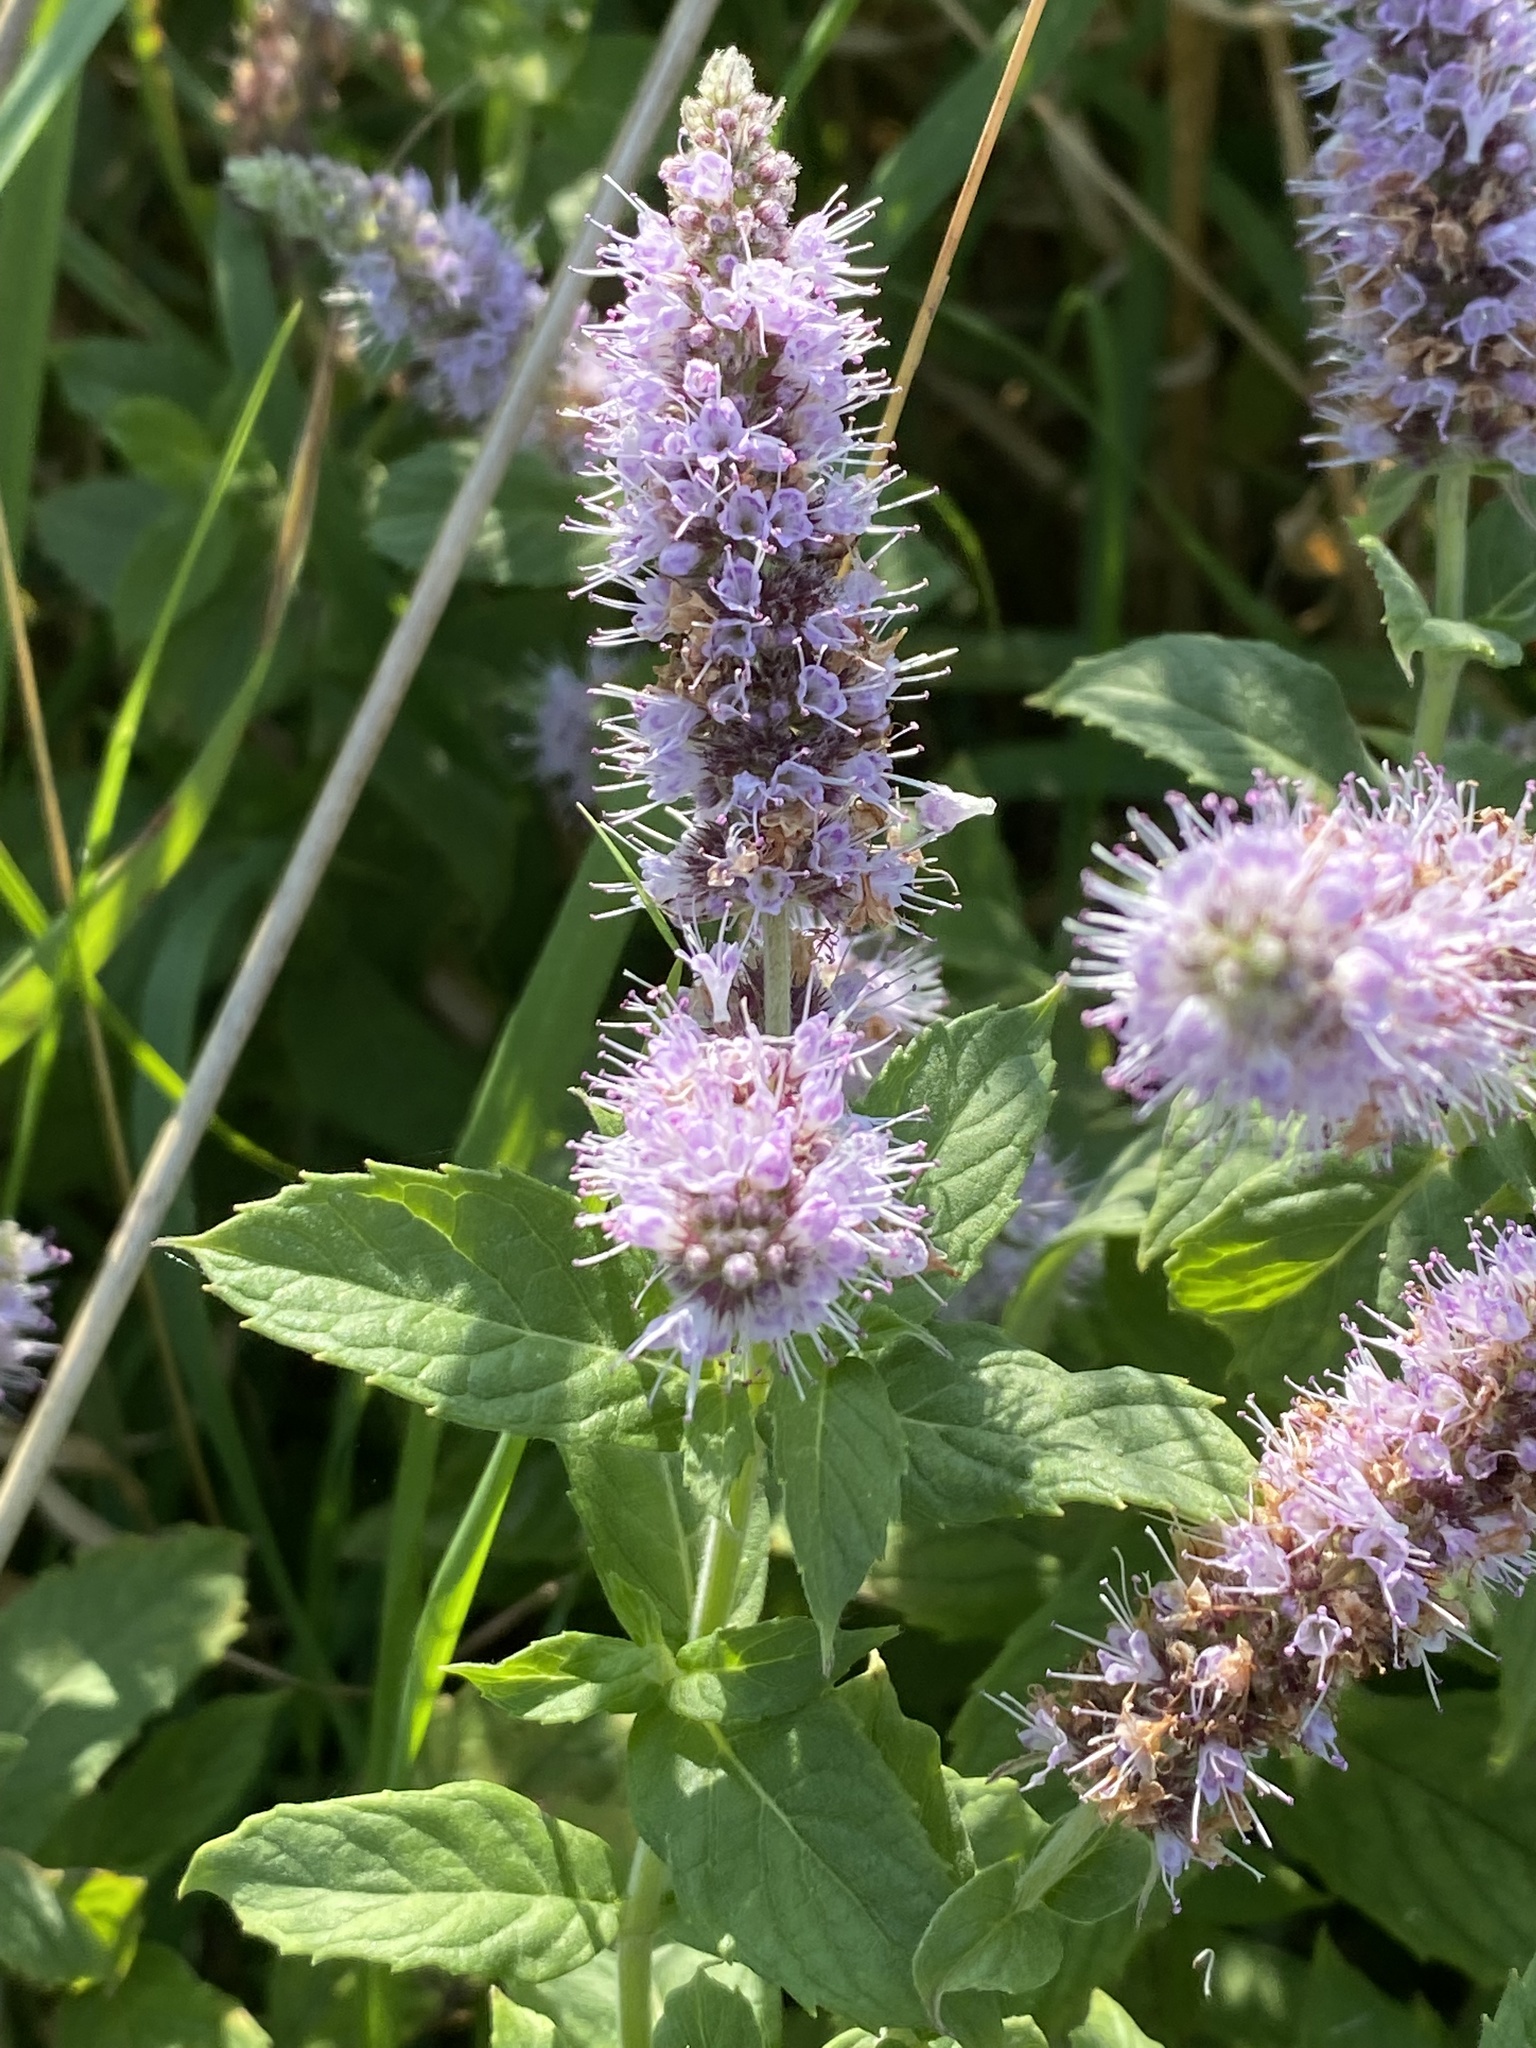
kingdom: Plantae
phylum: Tracheophyta
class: Magnoliopsida
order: Lamiales
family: Lamiaceae
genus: Mentha
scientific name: Mentha longifolia
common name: Horse mint
